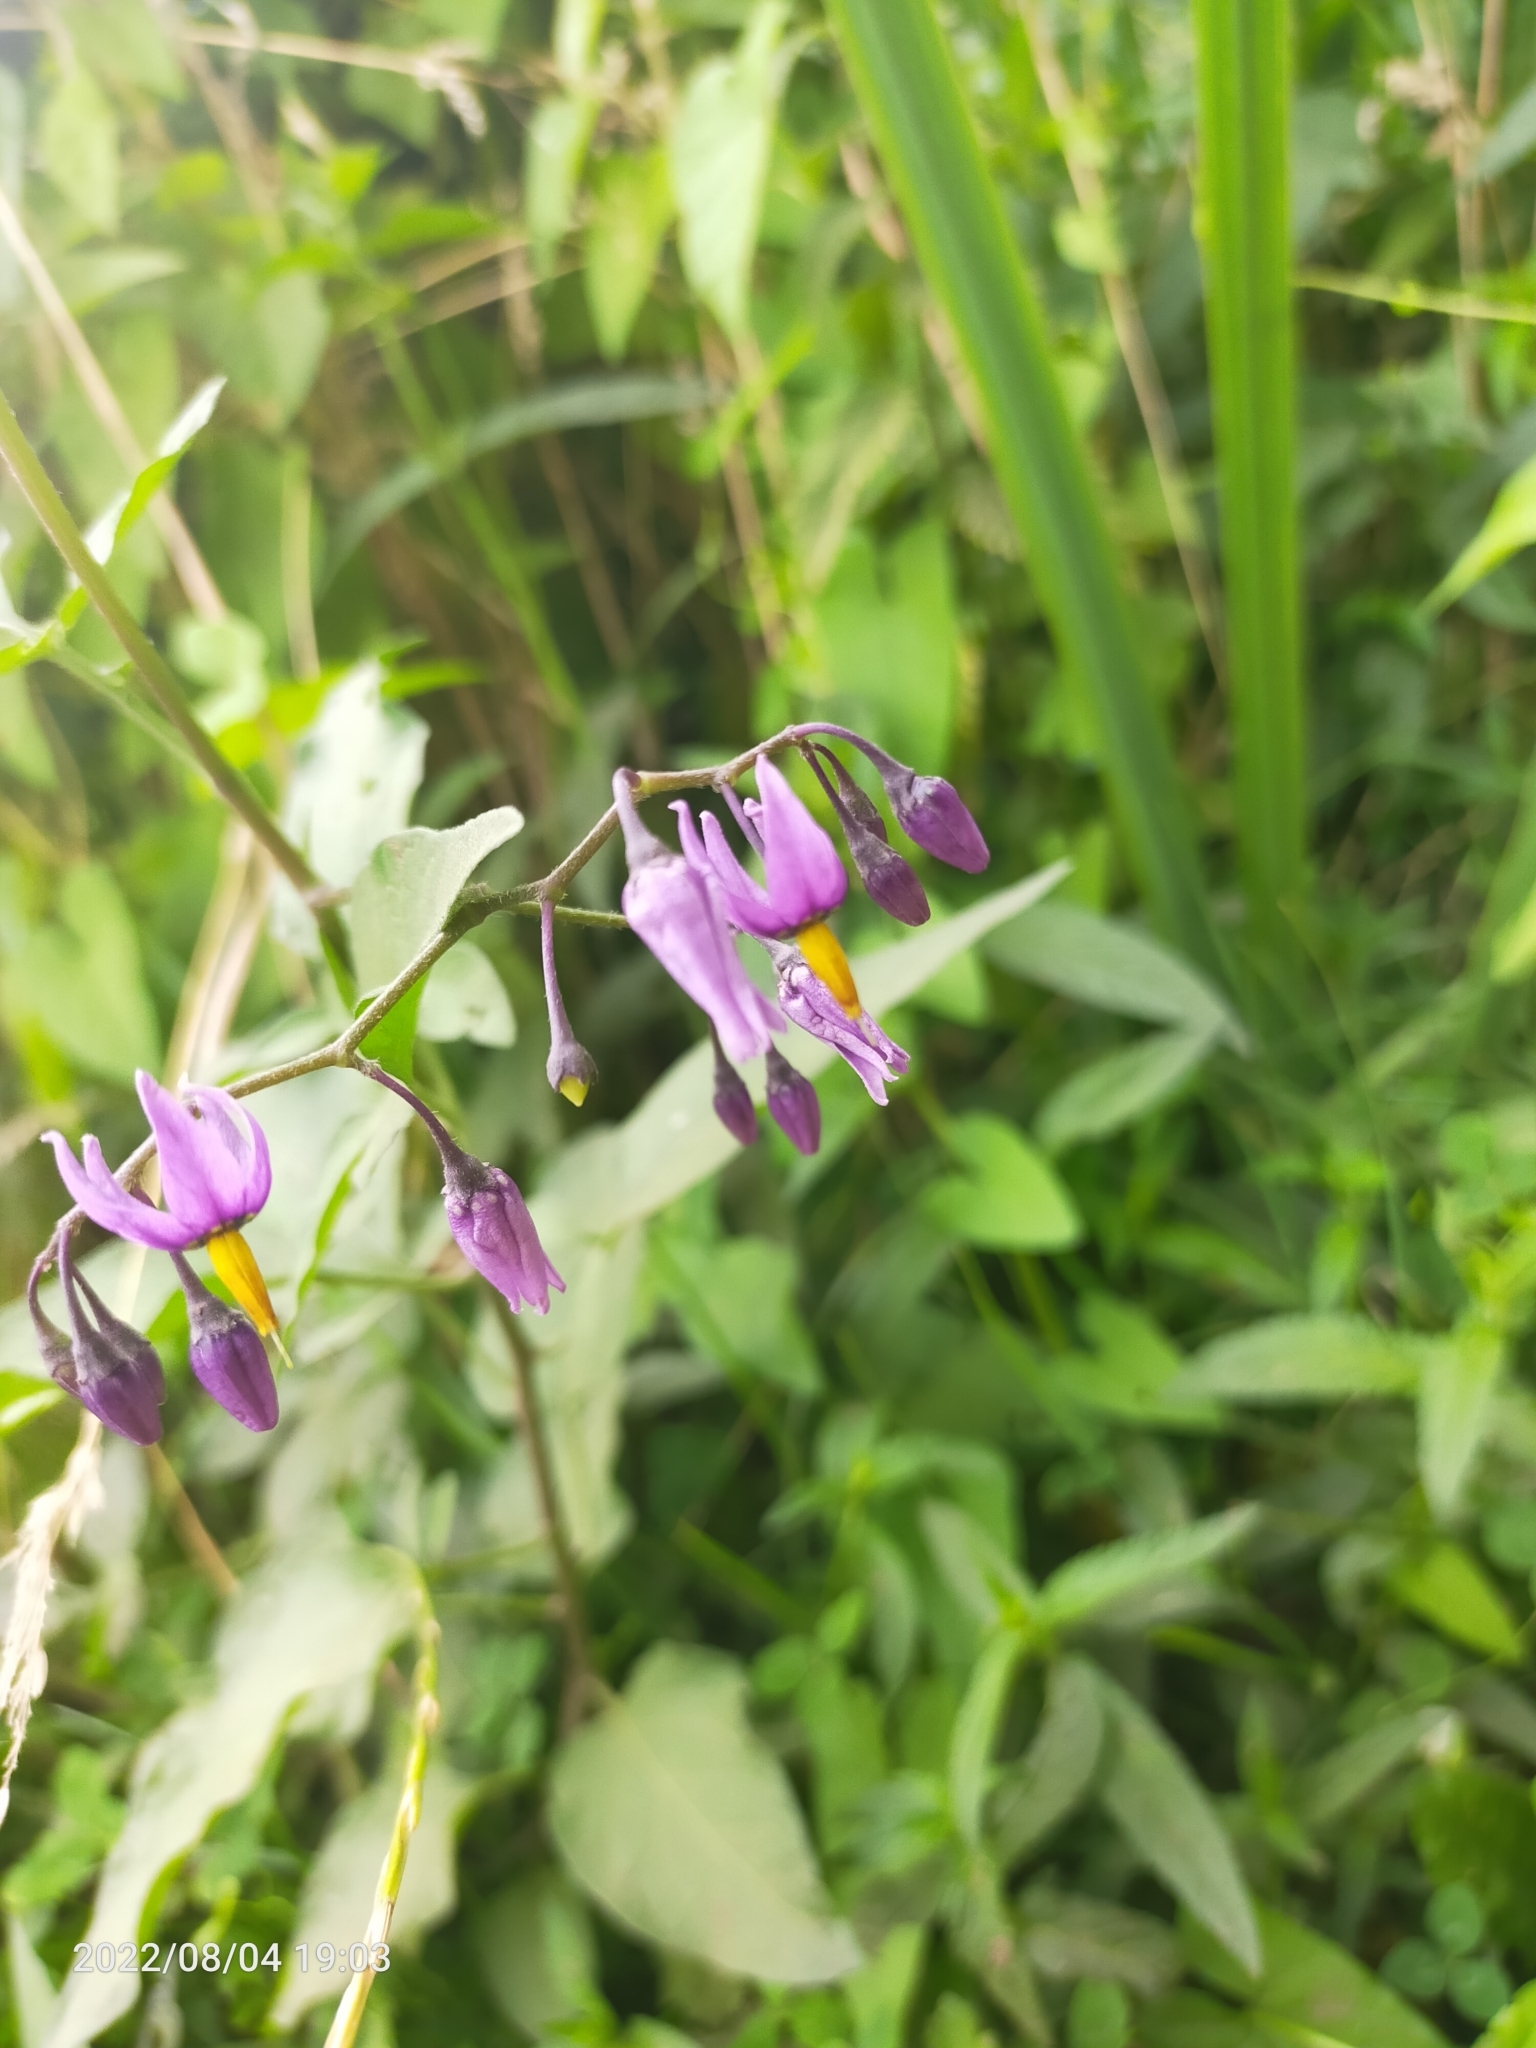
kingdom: Plantae
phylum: Tracheophyta
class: Magnoliopsida
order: Solanales
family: Solanaceae
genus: Solanum
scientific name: Solanum dulcamara
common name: Climbing nightshade
